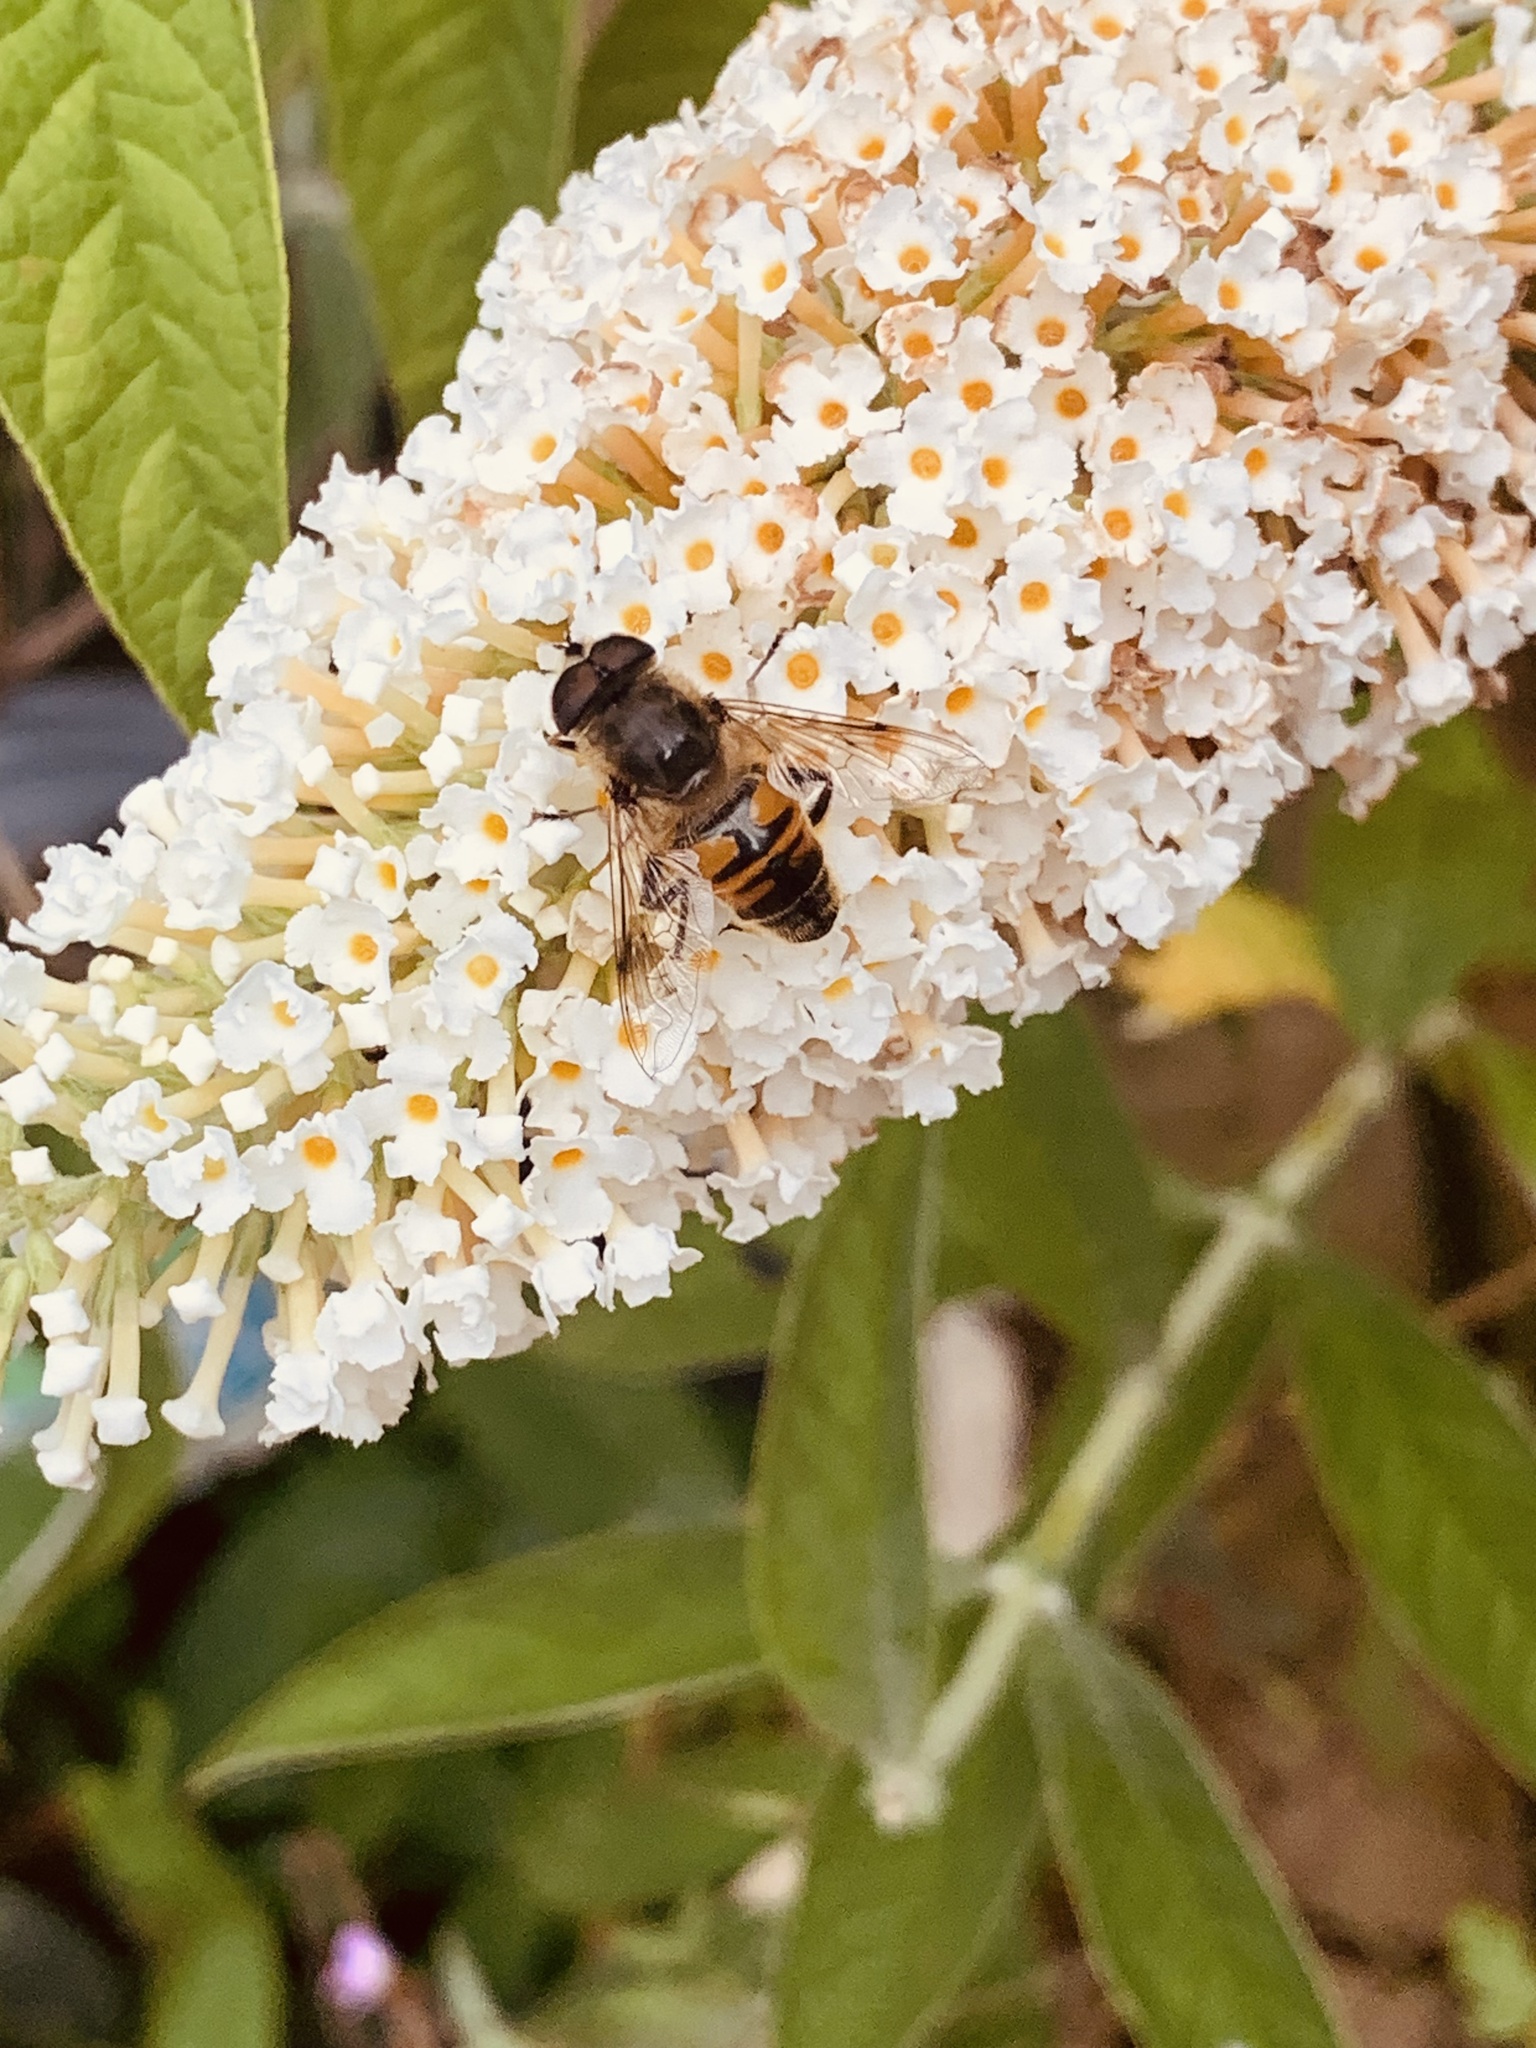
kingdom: Animalia
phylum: Arthropoda
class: Insecta
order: Diptera
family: Syrphidae
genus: Eristalis
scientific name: Eristalis tenax
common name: Drone fly
